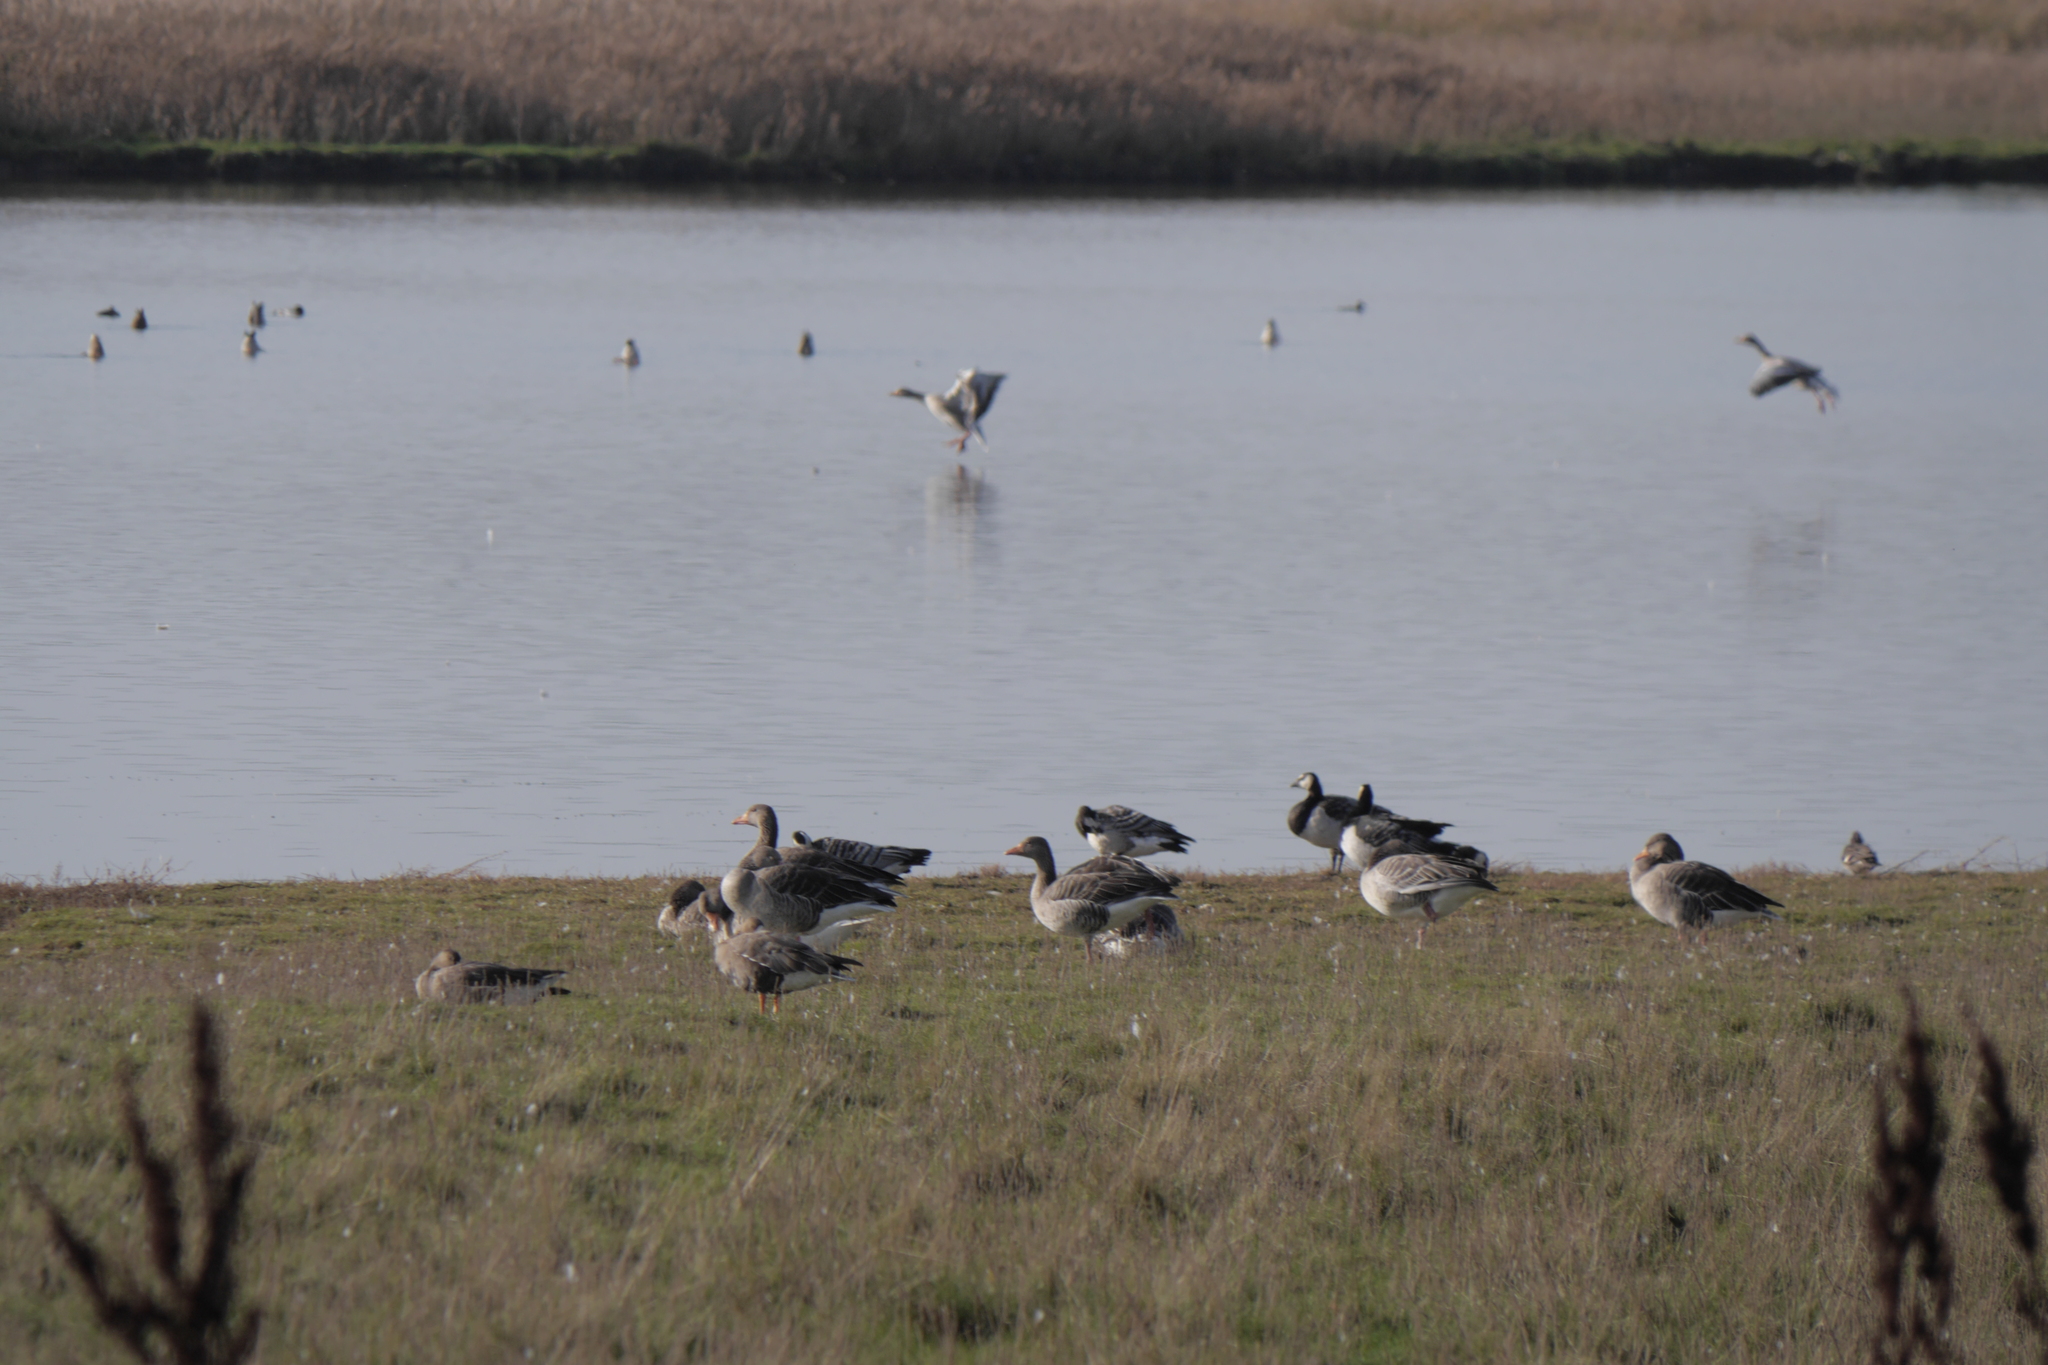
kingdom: Animalia
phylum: Chordata
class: Aves
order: Anseriformes
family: Anatidae
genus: Anser
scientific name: Anser anser
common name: Greylag goose
